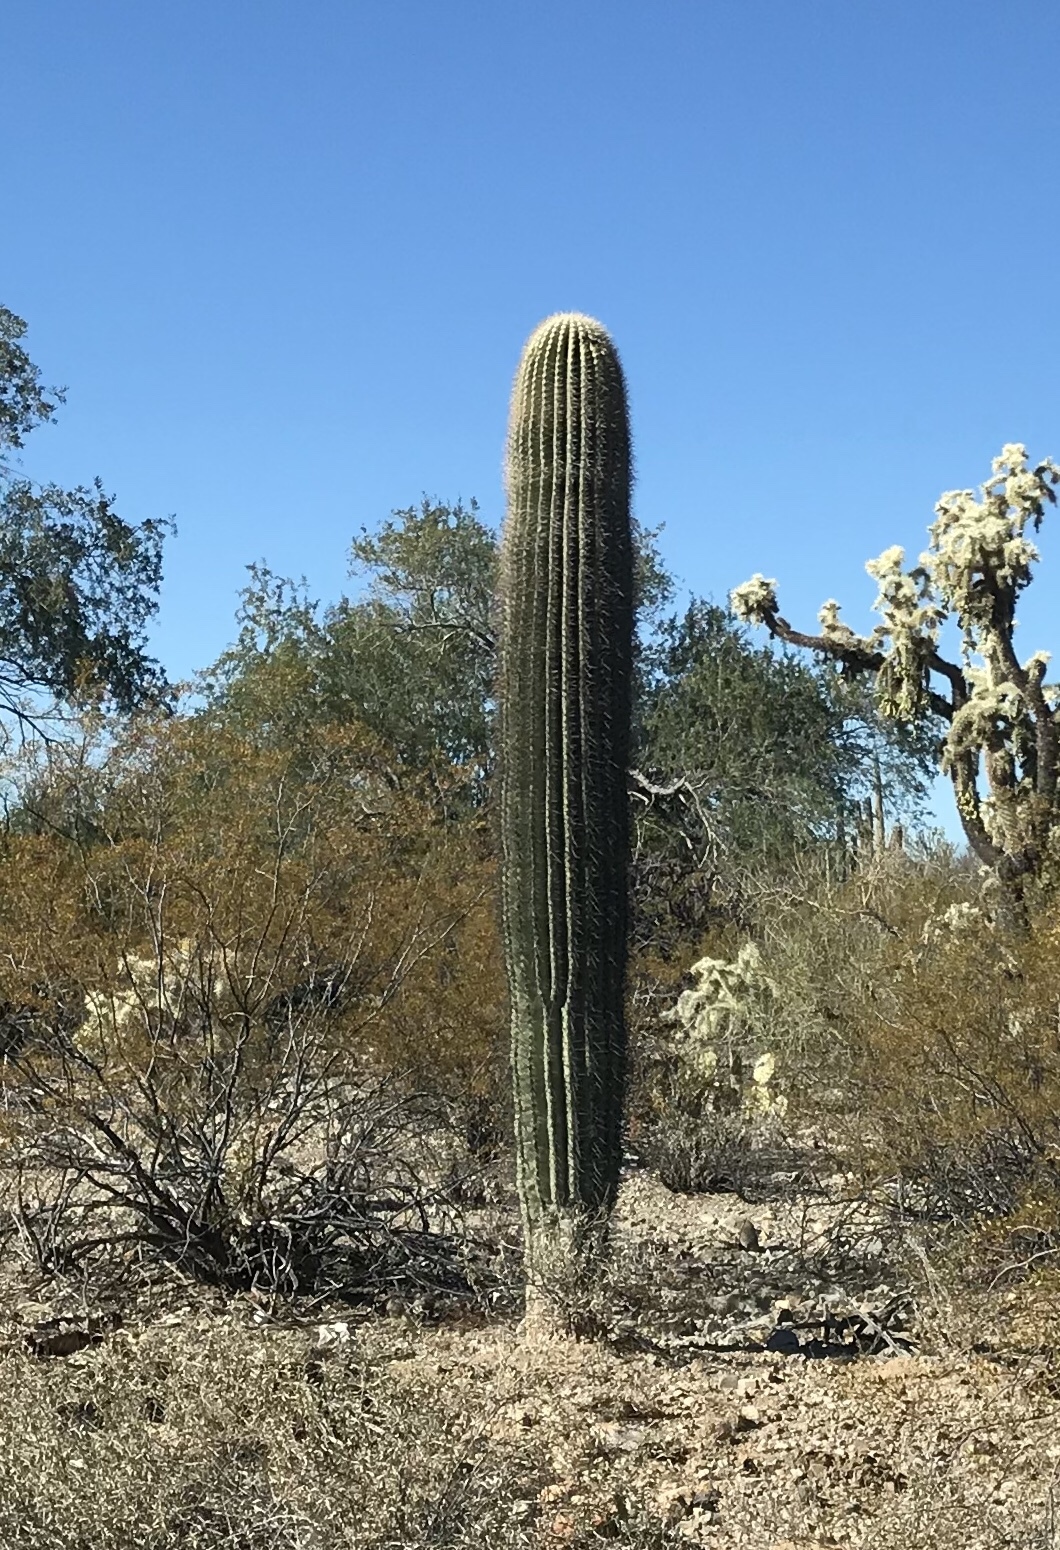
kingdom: Plantae
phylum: Tracheophyta
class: Magnoliopsida
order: Caryophyllales
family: Cactaceae
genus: Carnegiea
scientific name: Carnegiea gigantea
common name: Saguaro
